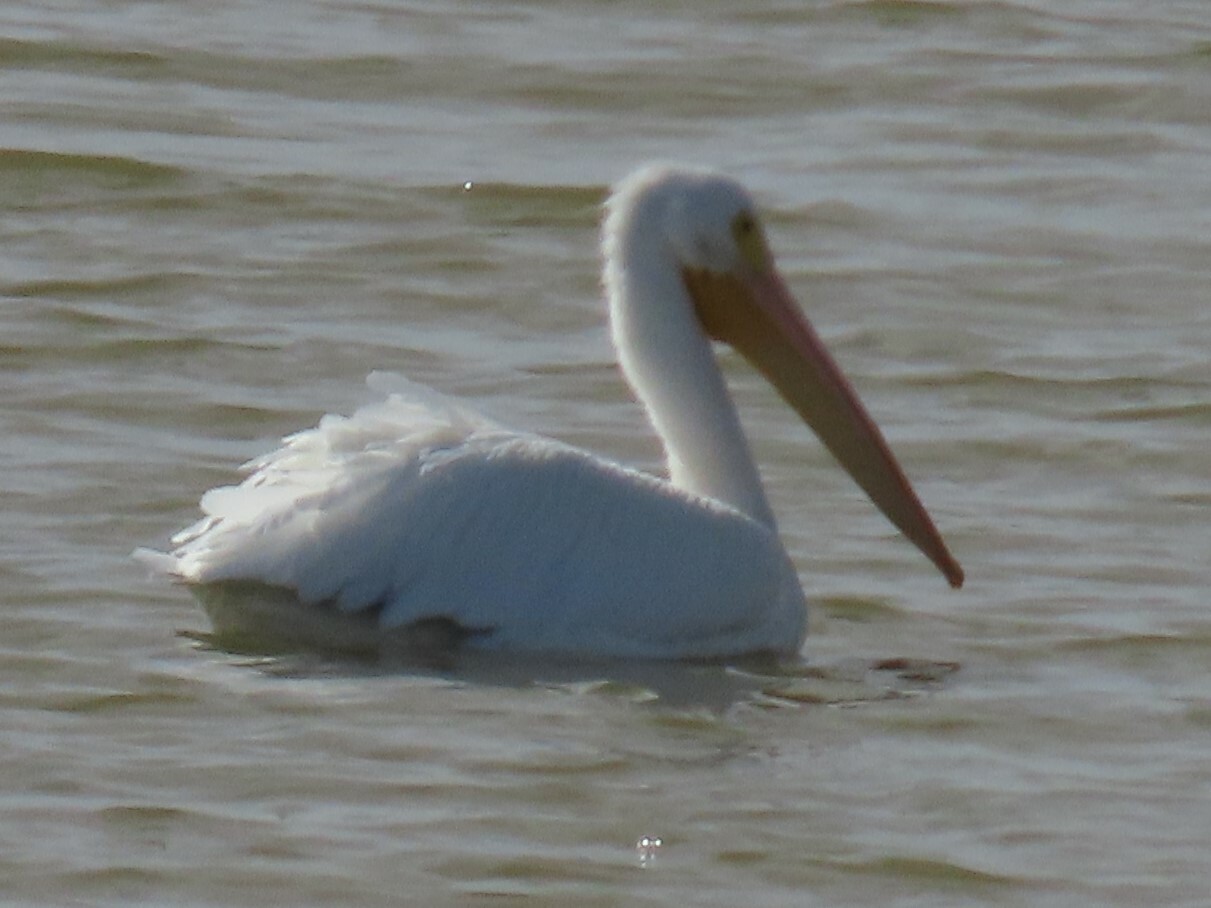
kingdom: Animalia
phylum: Chordata
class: Aves
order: Pelecaniformes
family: Pelecanidae
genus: Pelecanus
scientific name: Pelecanus erythrorhynchos
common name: American white pelican
